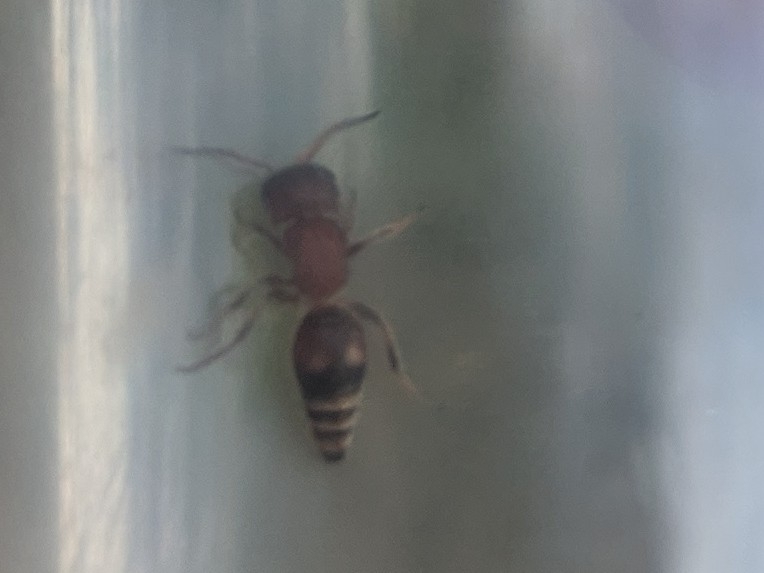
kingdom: Animalia
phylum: Arthropoda
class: Insecta
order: Hymenoptera
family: Mutillidae
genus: Pseudomethoca
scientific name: Pseudomethoca
